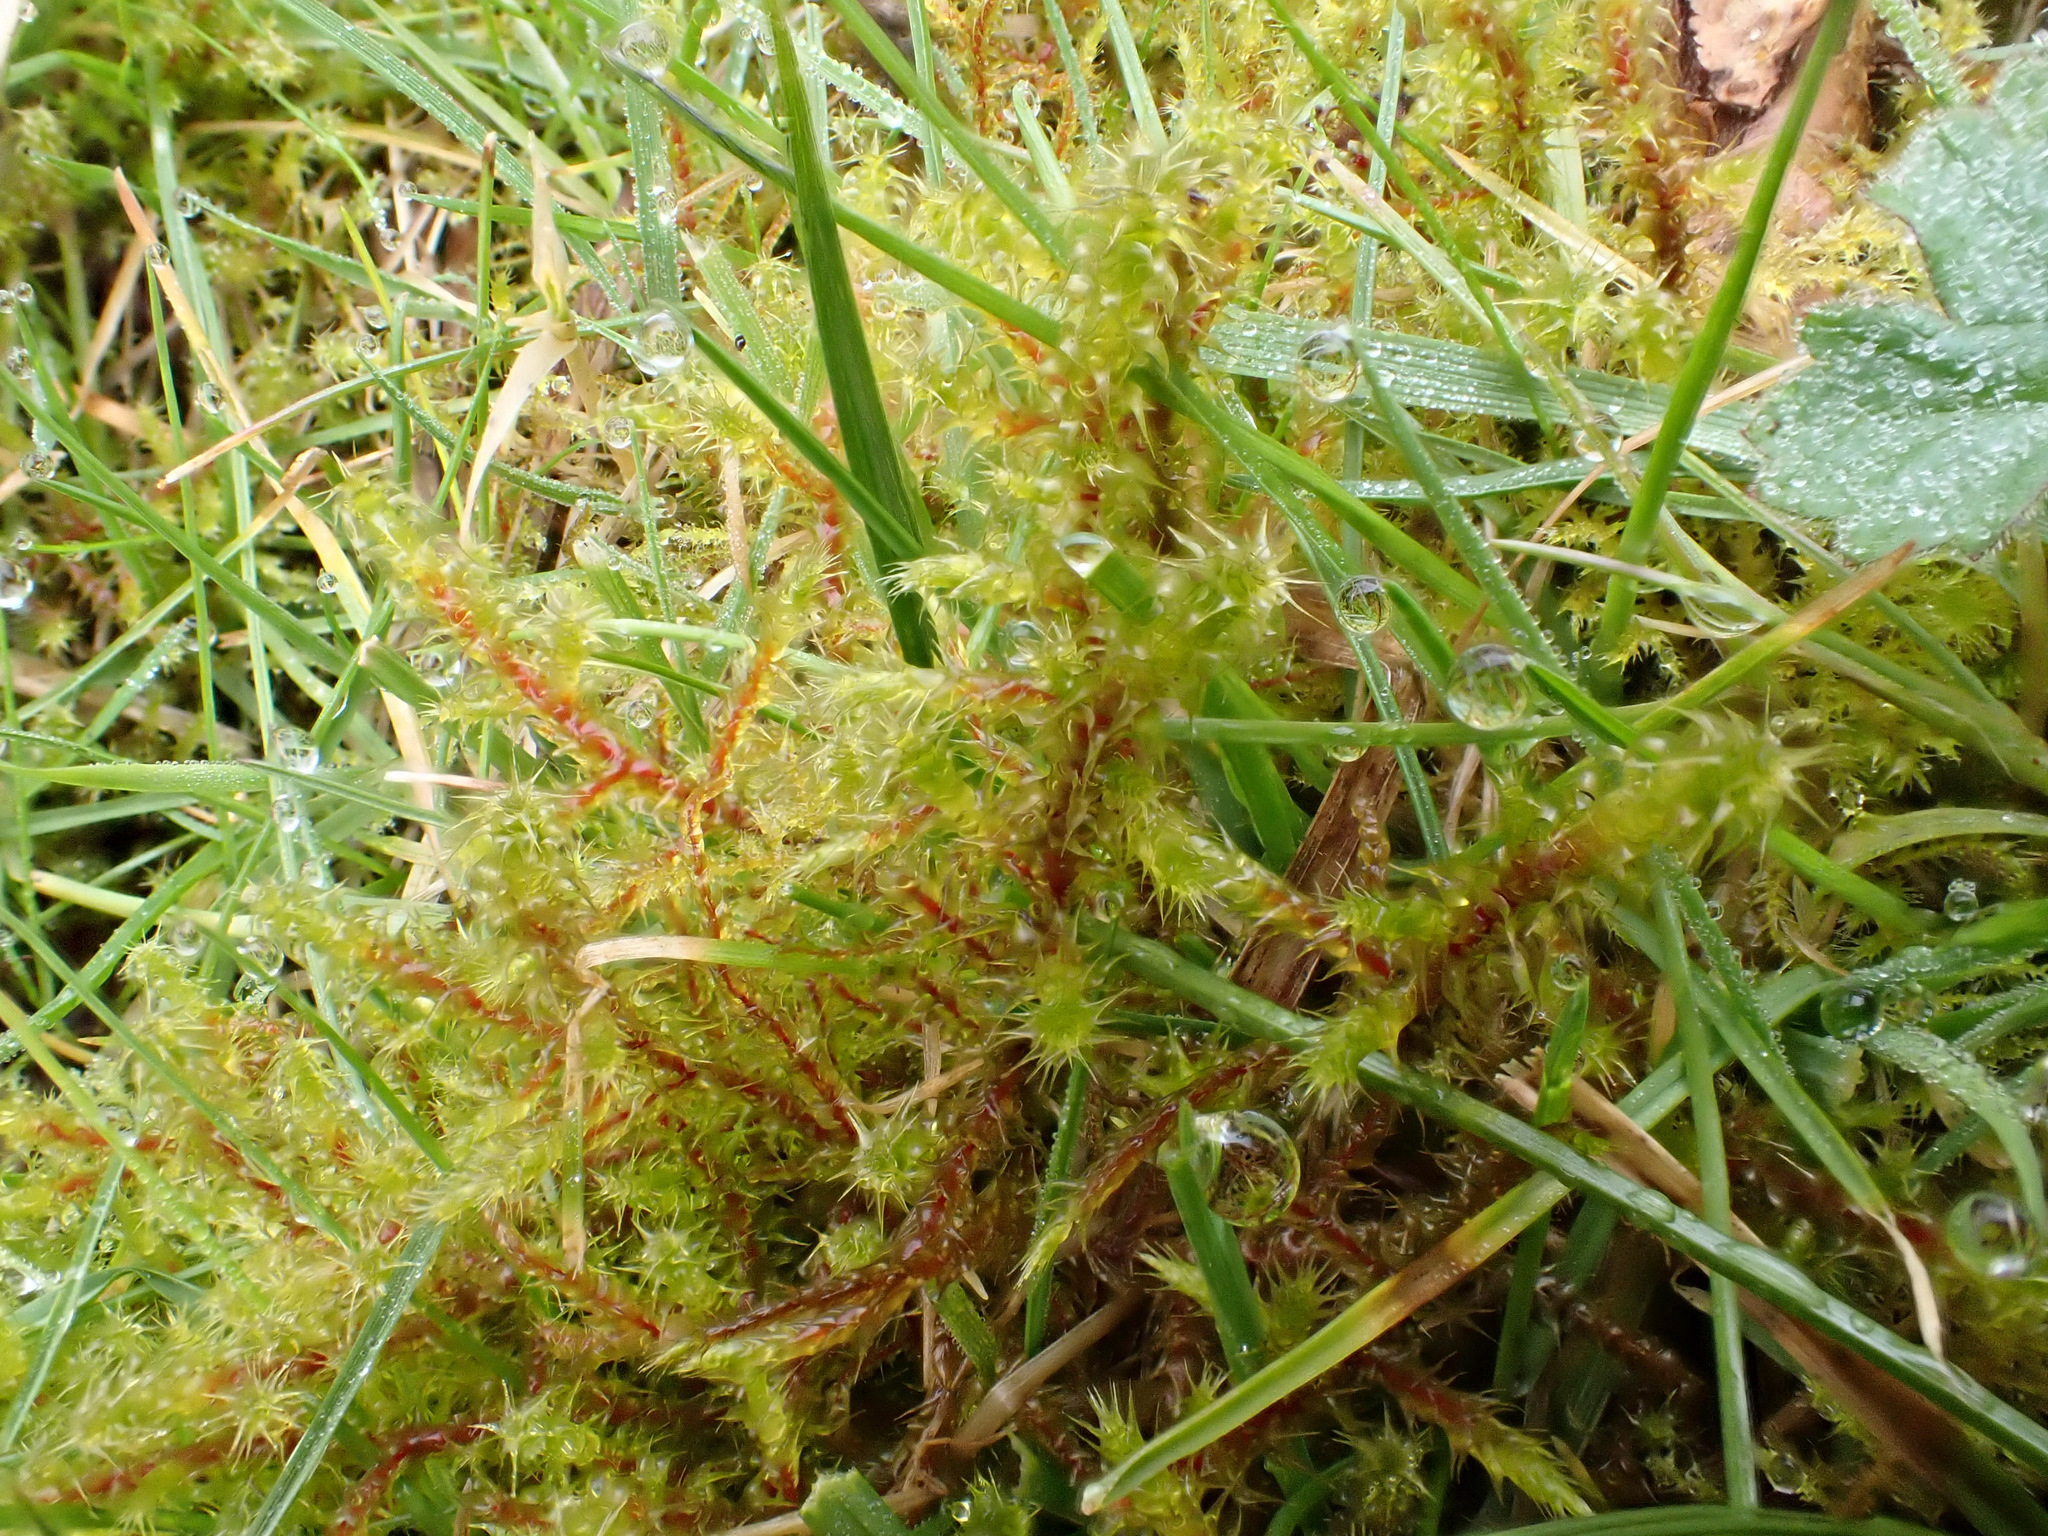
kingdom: Plantae
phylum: Bryophyta
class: Bryopsida
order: Hypnales
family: Hylocomiaceae
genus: Rhytidiadelphus
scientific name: Rhytidiadelphus squarrosus
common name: Springy turf-moss
